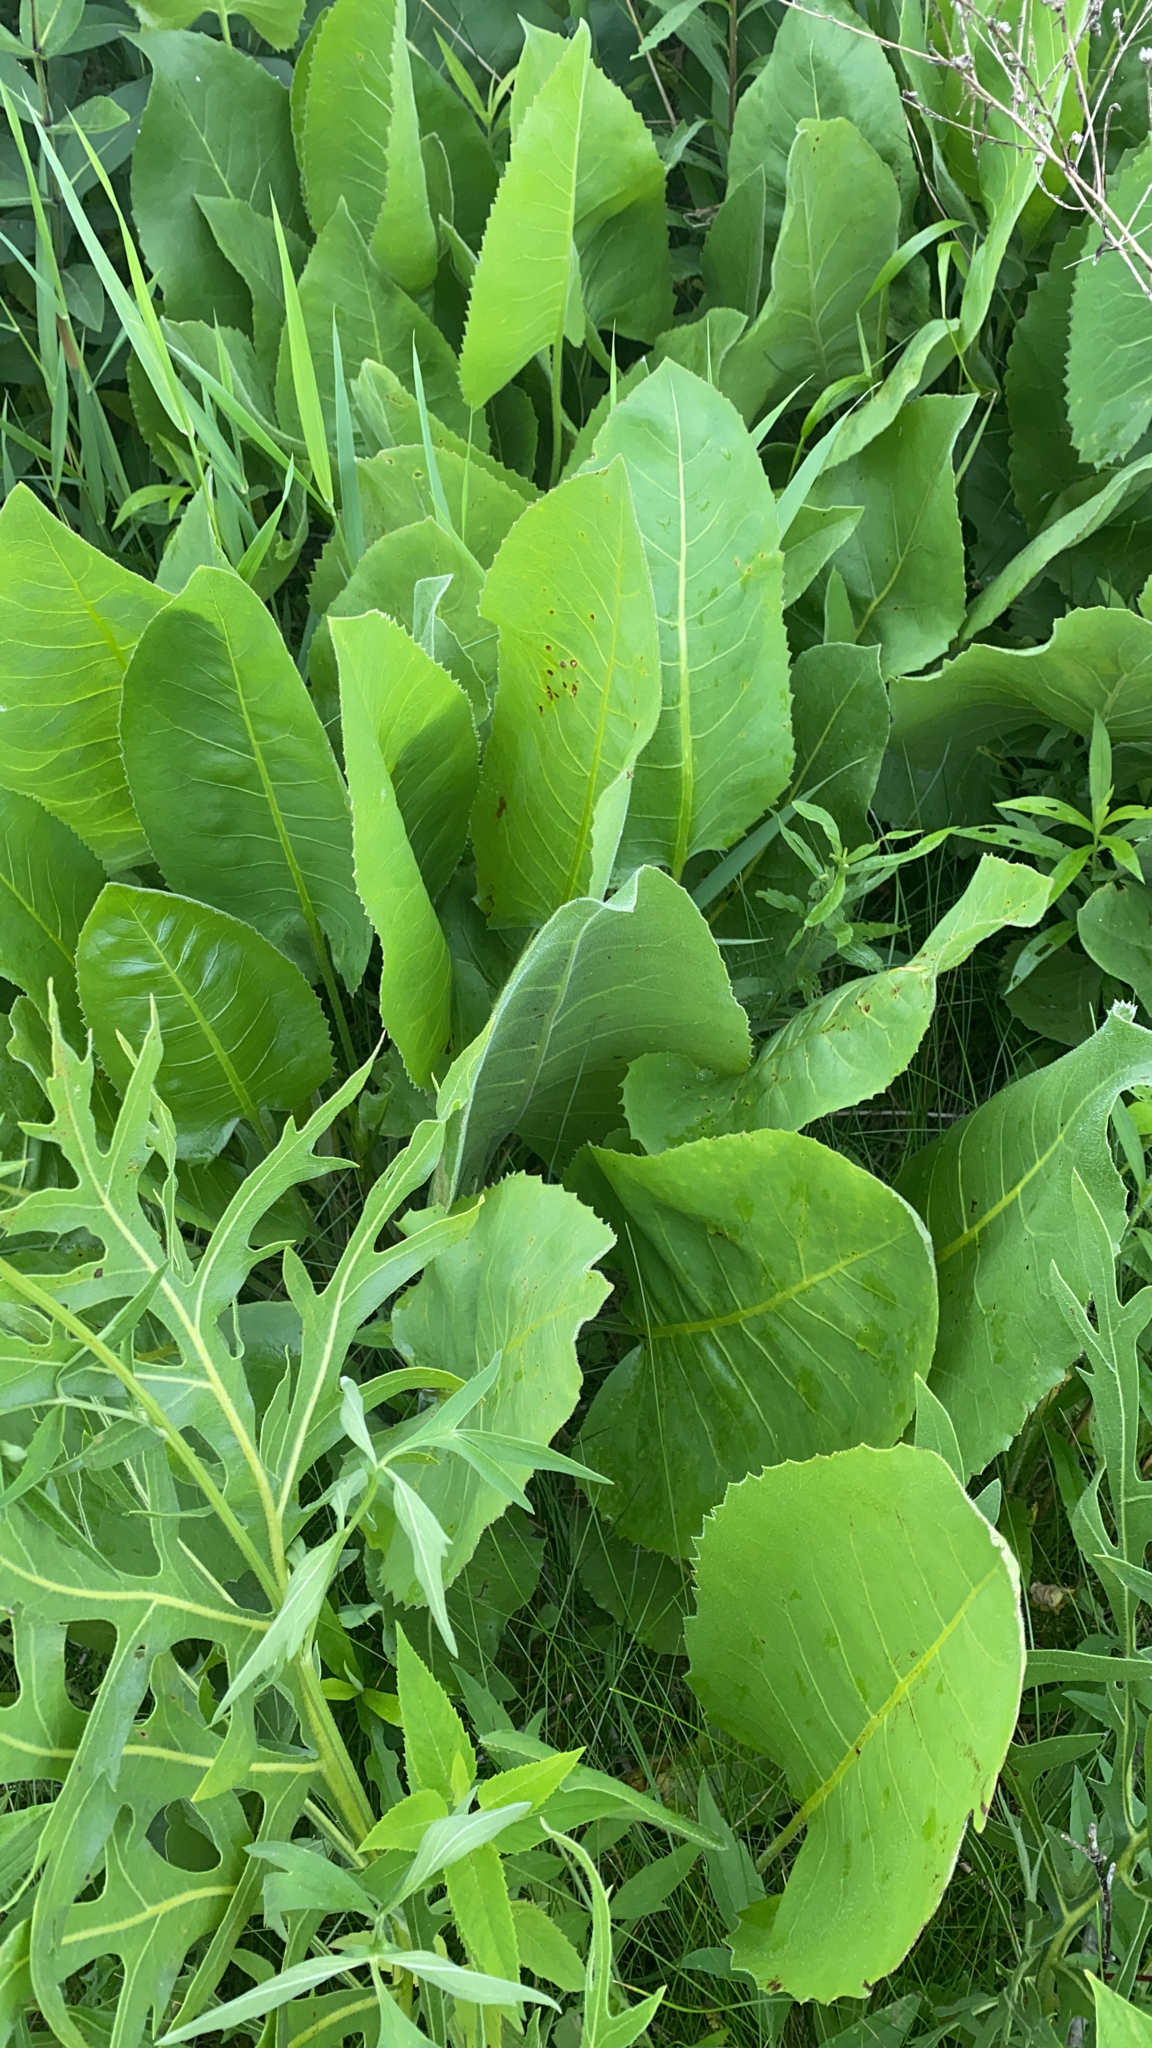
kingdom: Plantae
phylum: Tracheophyta
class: Magnoliopsida
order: Asterales
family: Asteraceae
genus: Silphium
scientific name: Silphium terebinthinaceum
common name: Basal-leaf rosinweed
